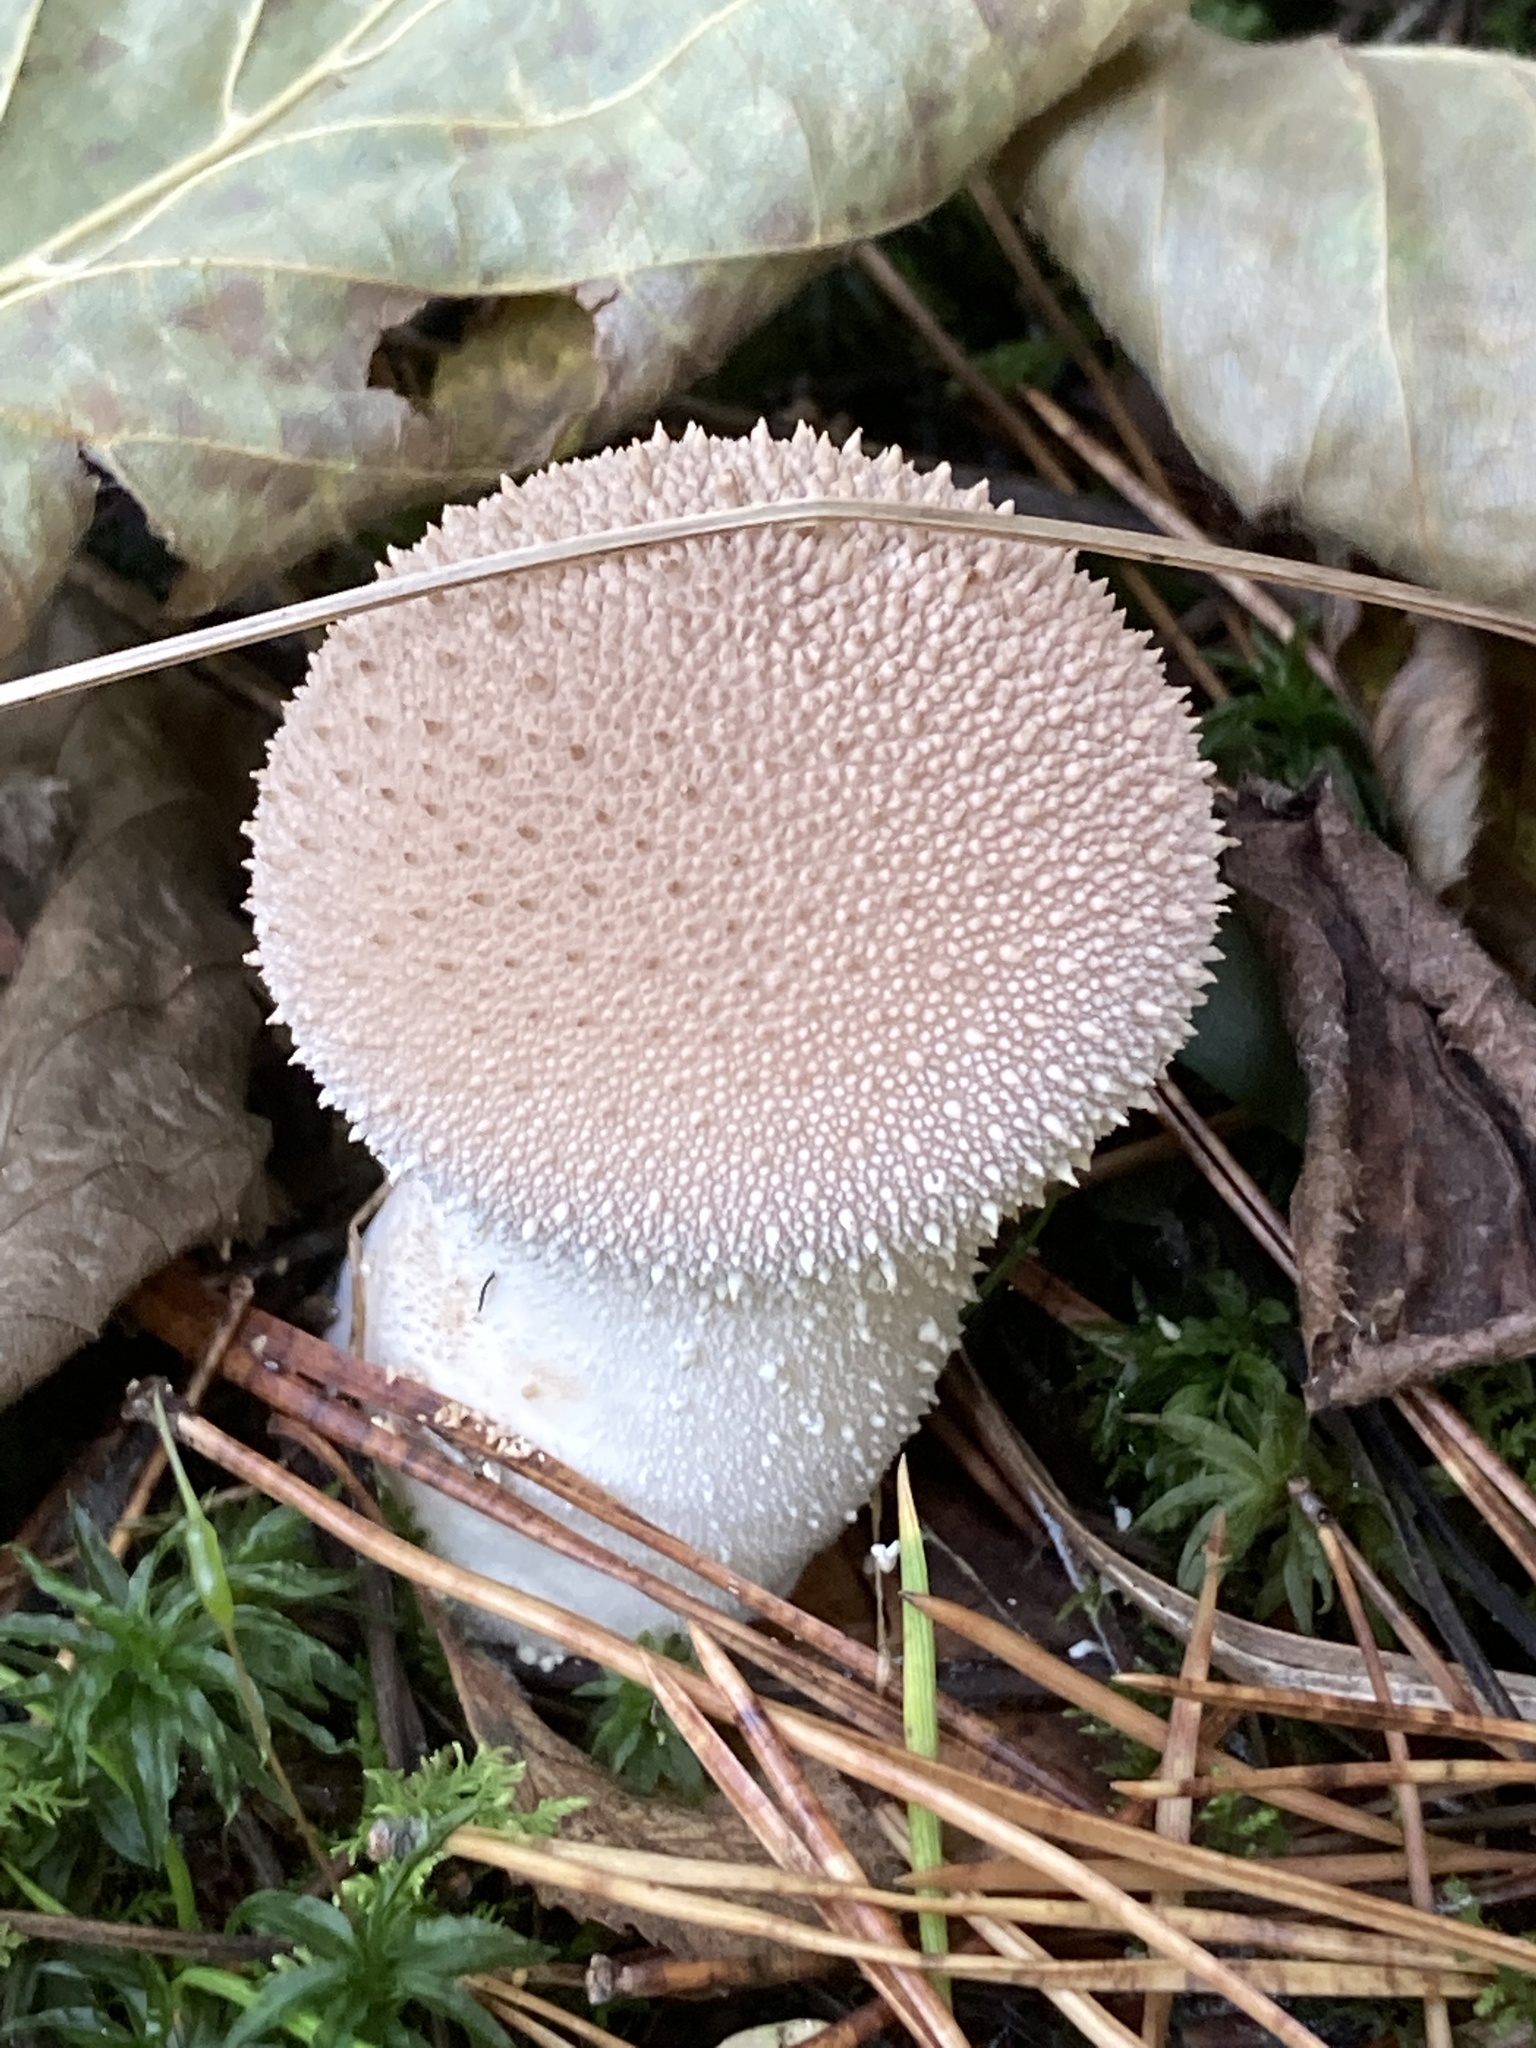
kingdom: Fungi
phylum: Basidiomycota
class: Agaricomycetes
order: Agaricales
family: Lycoperdaceae
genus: Lycoperdon
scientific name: Lycoperdon perlatum
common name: Common puffball
